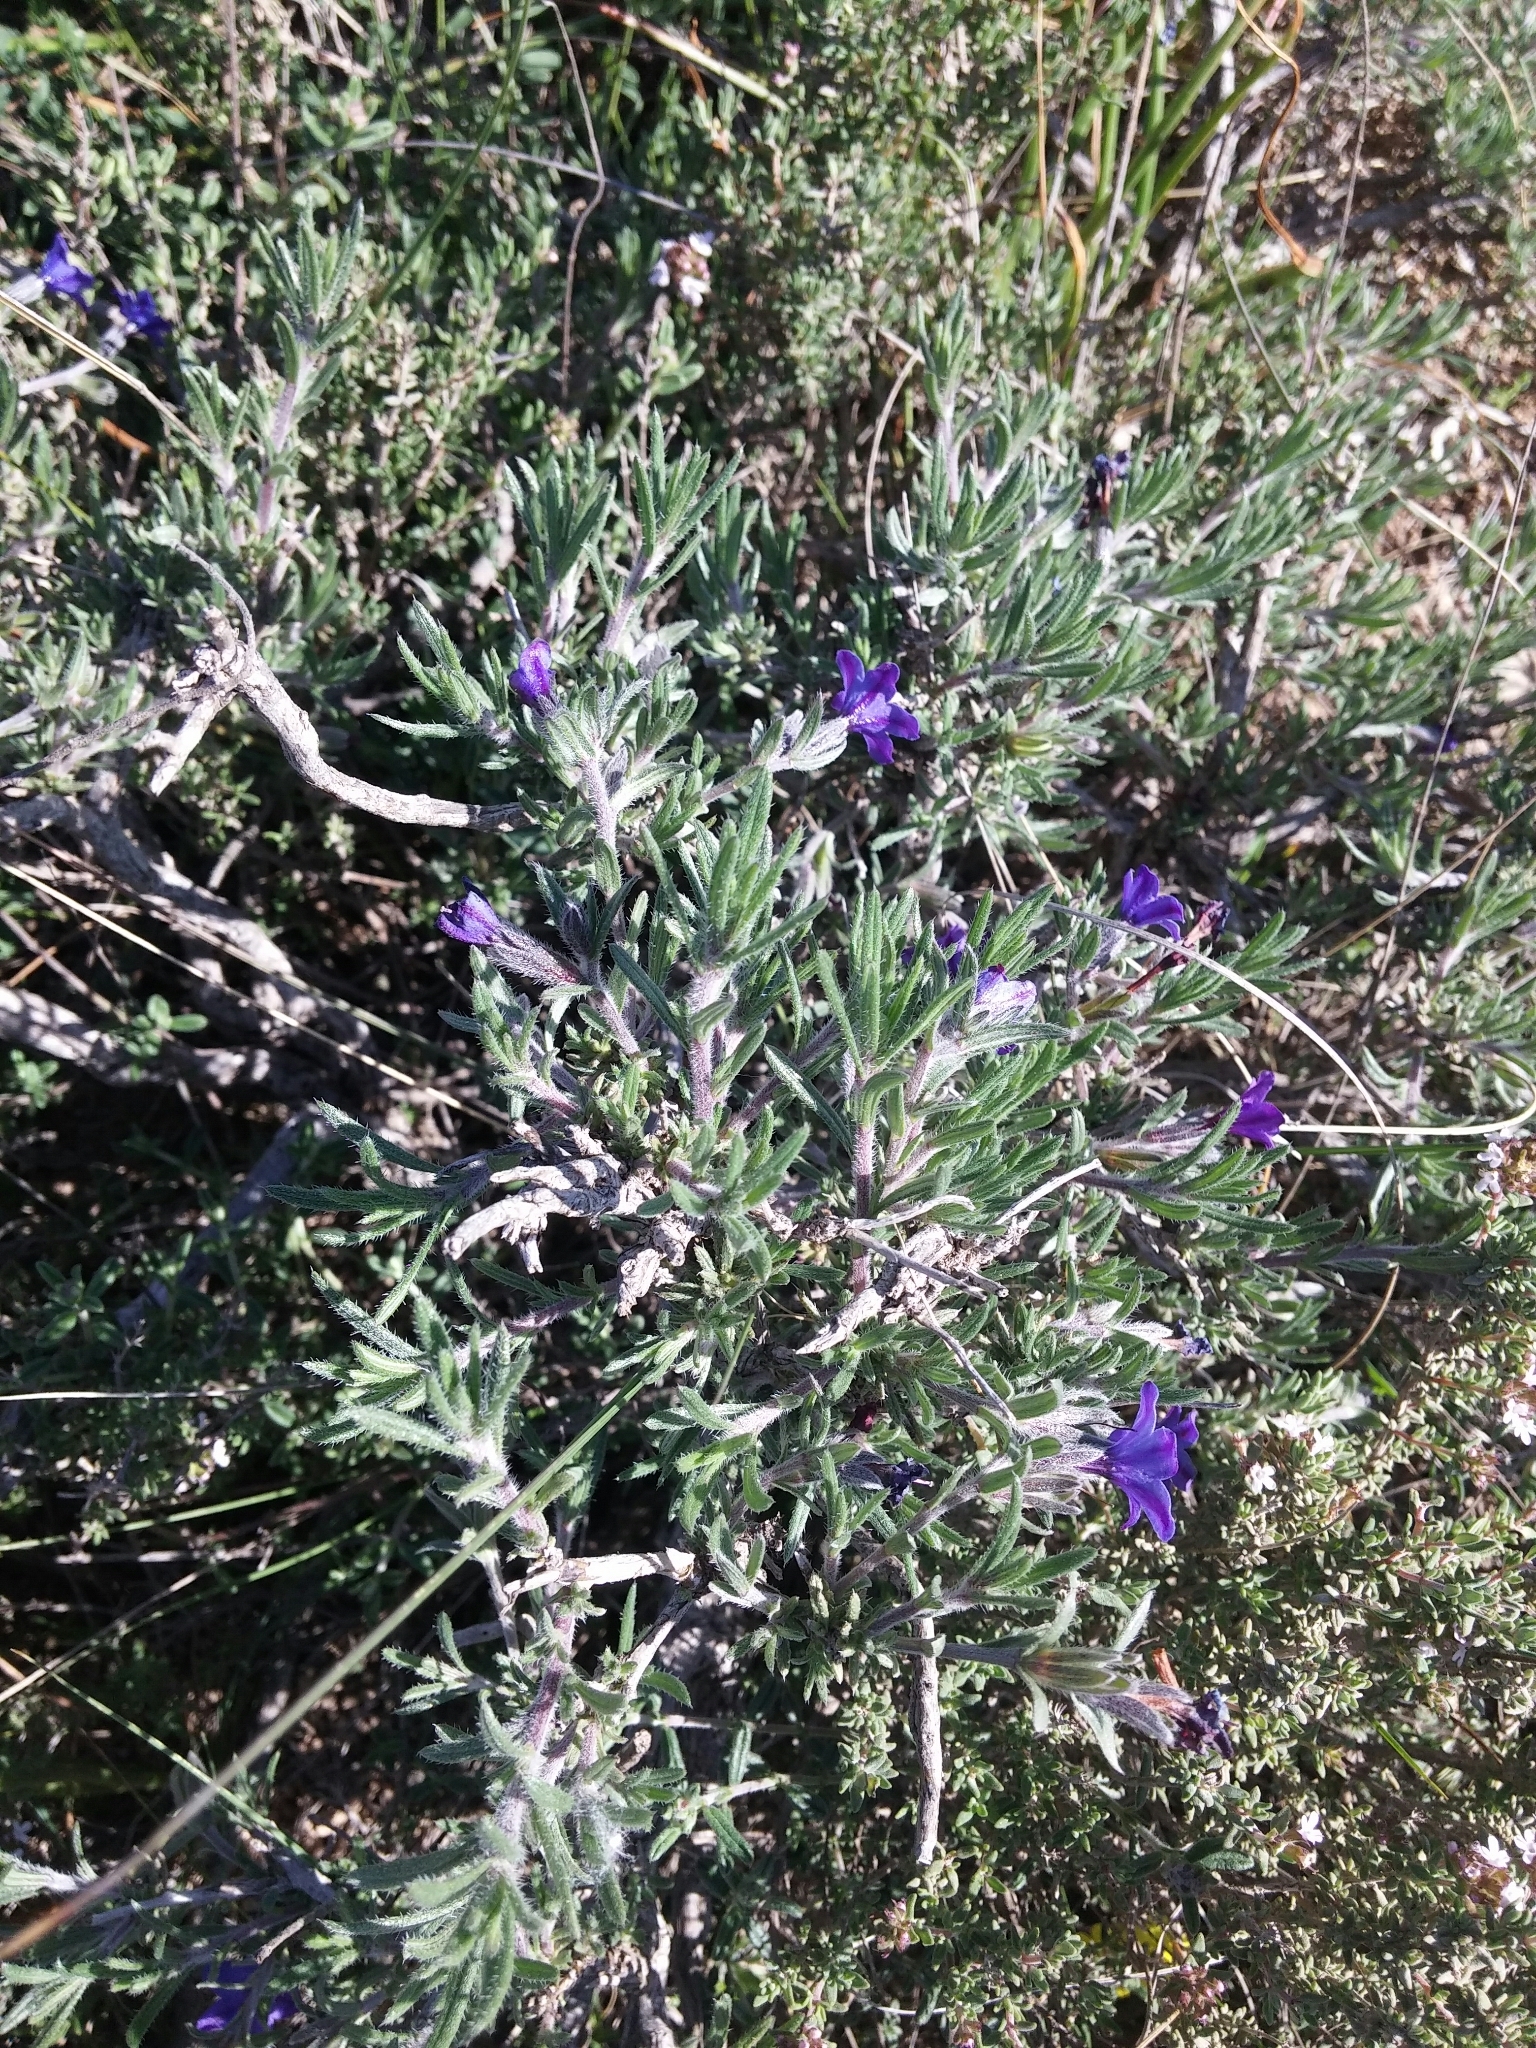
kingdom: Plantae
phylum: Tracheophyta
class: Magnoliopsida
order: Boraginales
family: Boraginaceae
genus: Lithodora
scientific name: Lithodora fruticosa
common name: Shrubby gromwell
